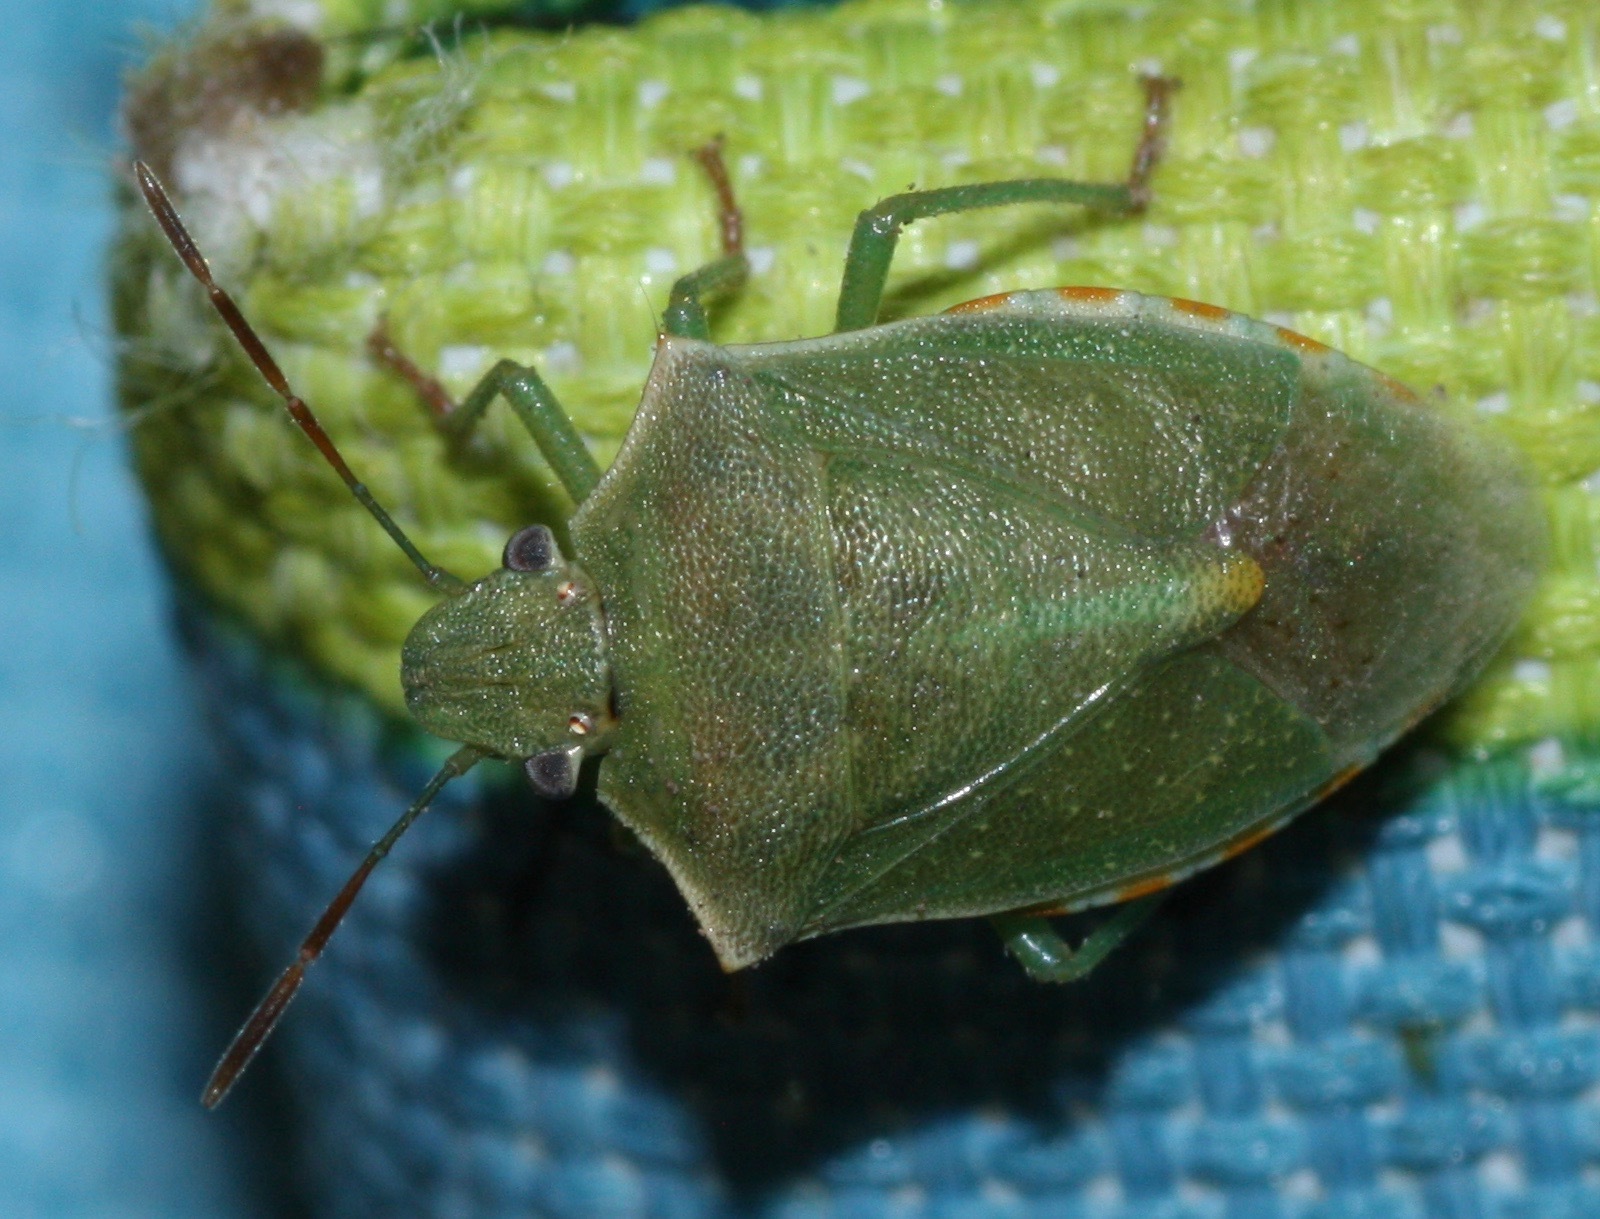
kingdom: Animalia
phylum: Arthropoda
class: Insecta
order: Hemiptera
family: Pentatomidae
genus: Thyanta
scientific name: Thyanta accerra
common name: Stink bug
